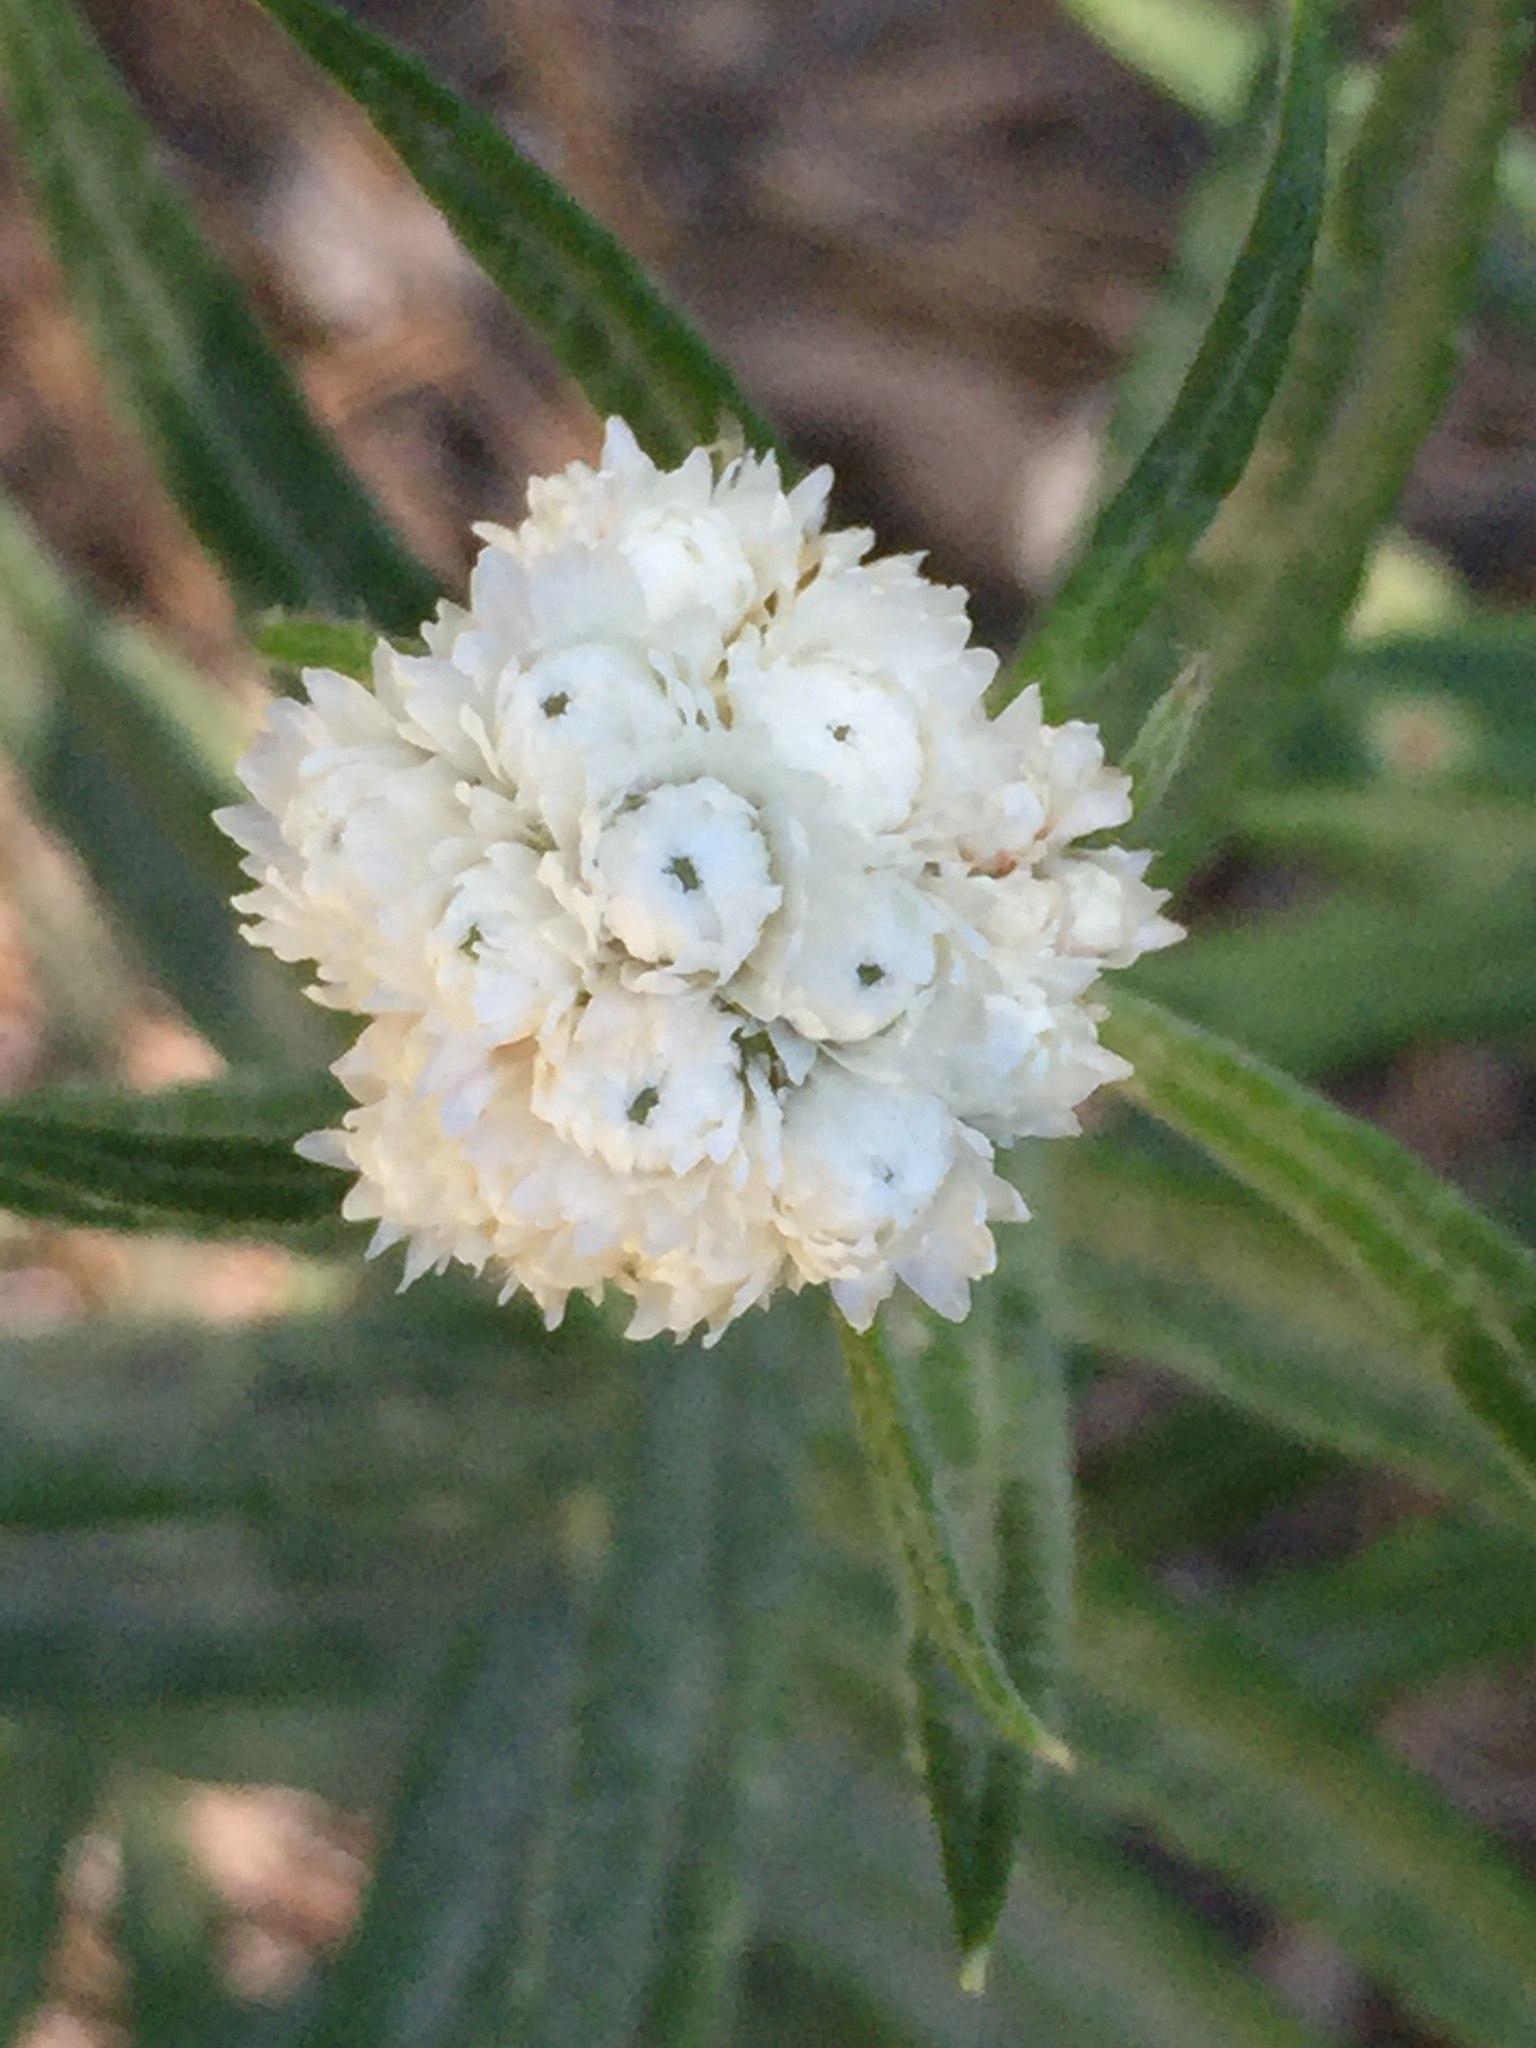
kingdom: Plantae
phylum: Tracheophyta
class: Magnoliopsida
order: Asterales
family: Asteraceae
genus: Anaphalis
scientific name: Anaphalis margaritacea
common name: Pearly everlasting
